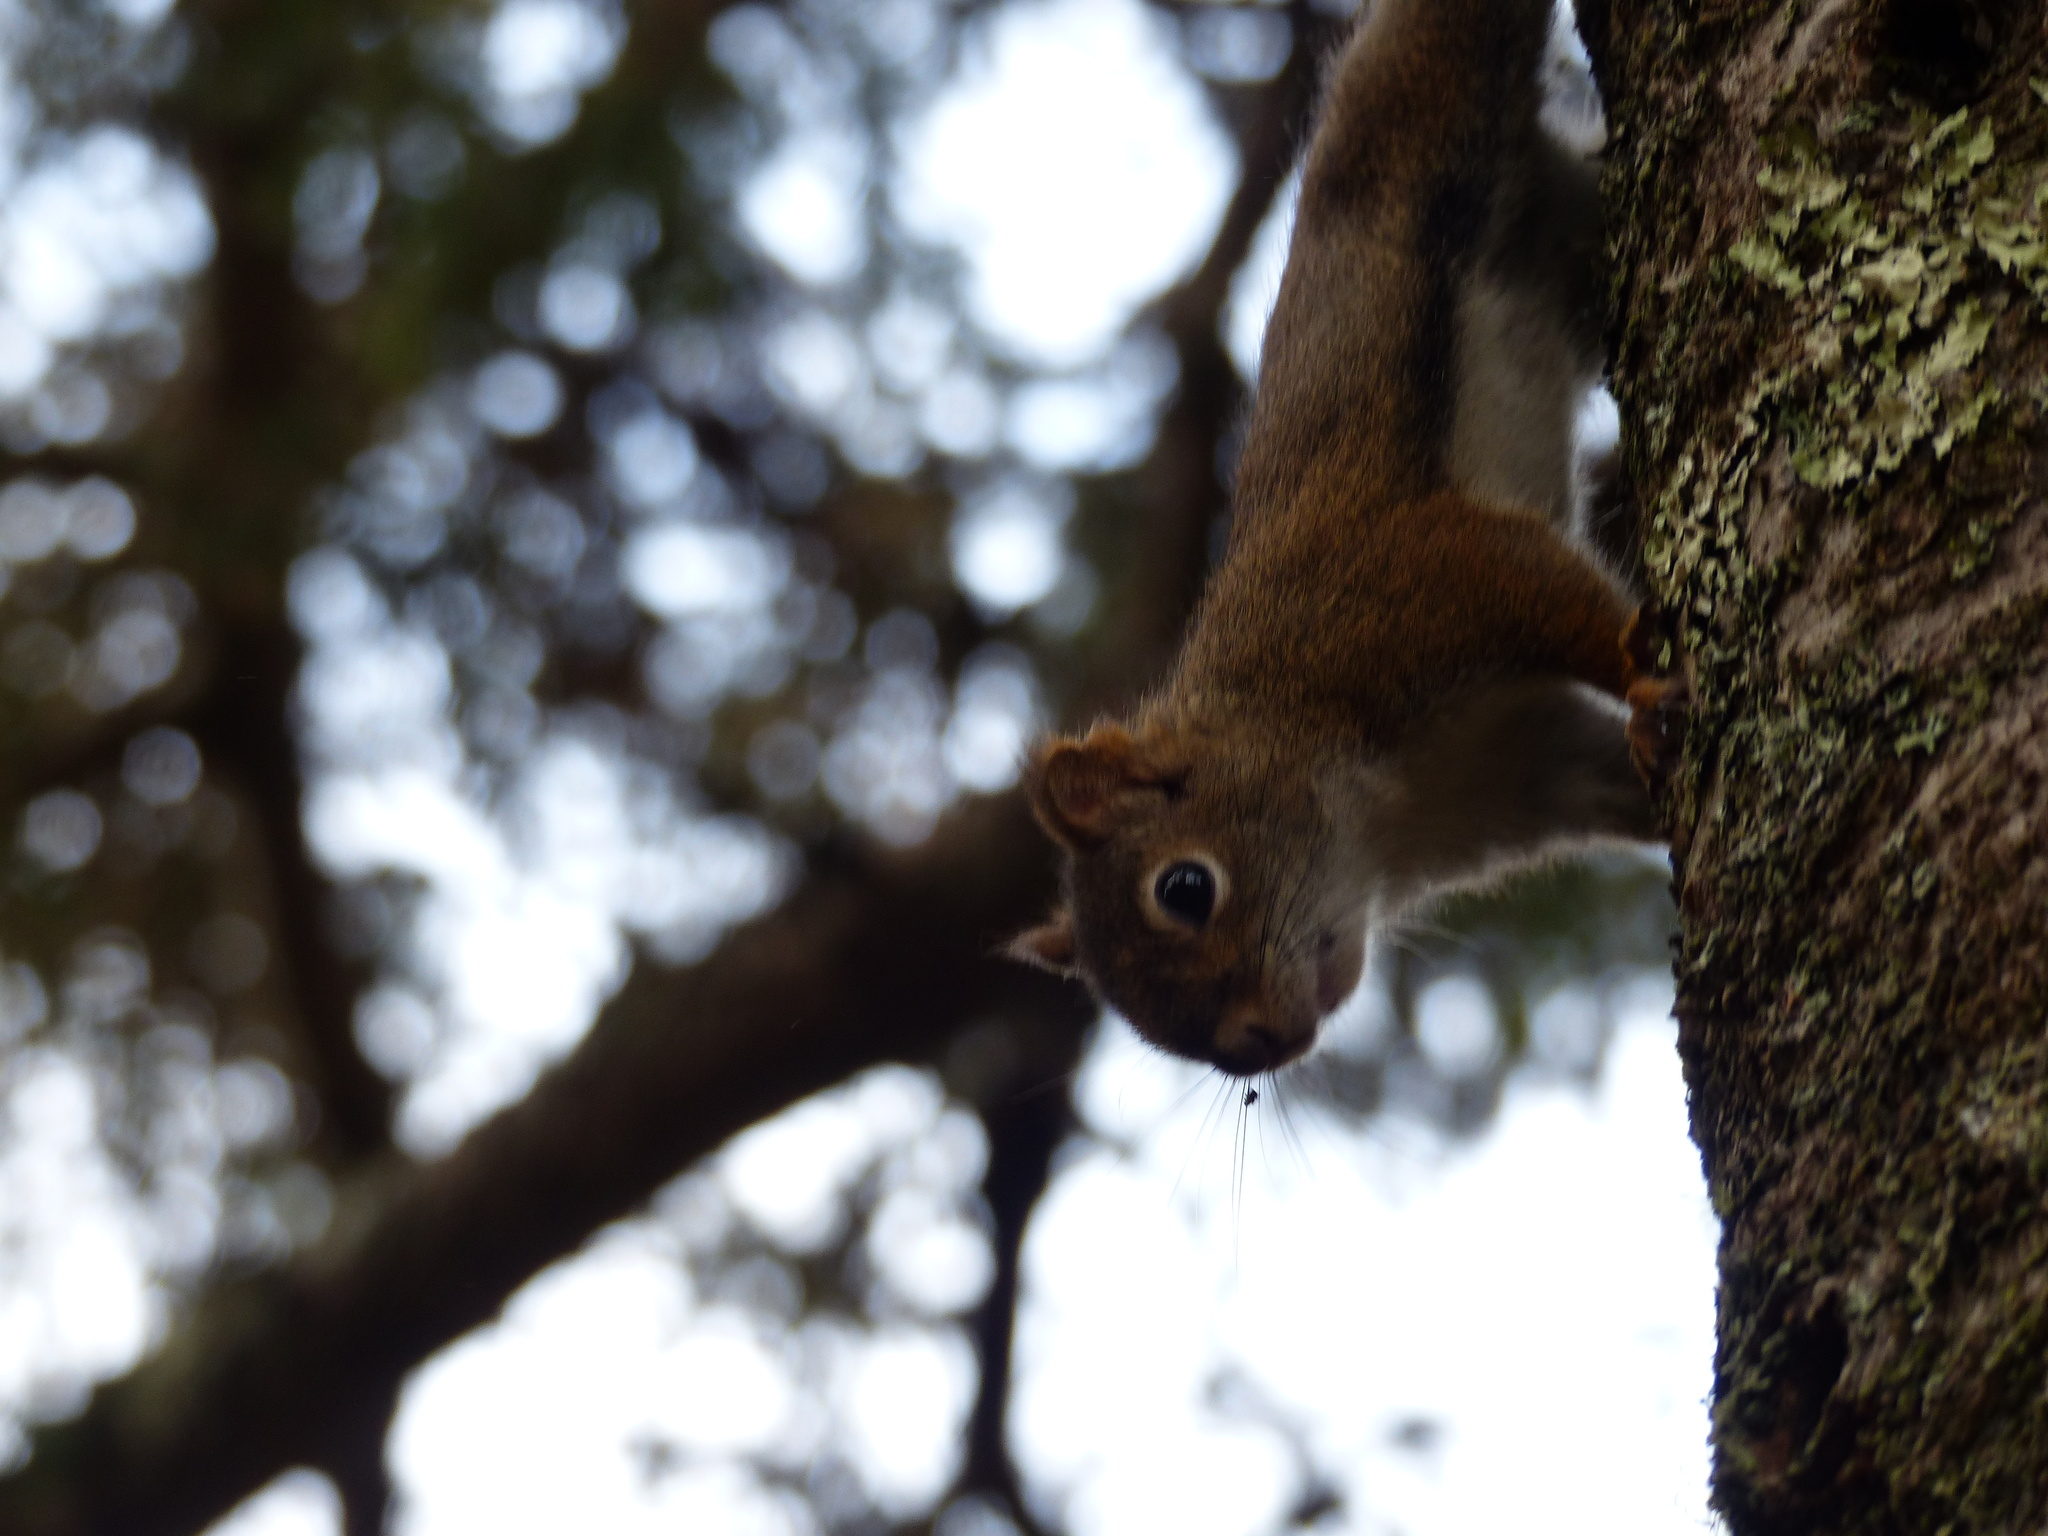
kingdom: Animalia
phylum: Chordata
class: Mammalia
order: Rodentia
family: Sciuridae
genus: Tamiasciurus
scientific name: Tamiasciurus hudsonicus
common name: Red squirrel
